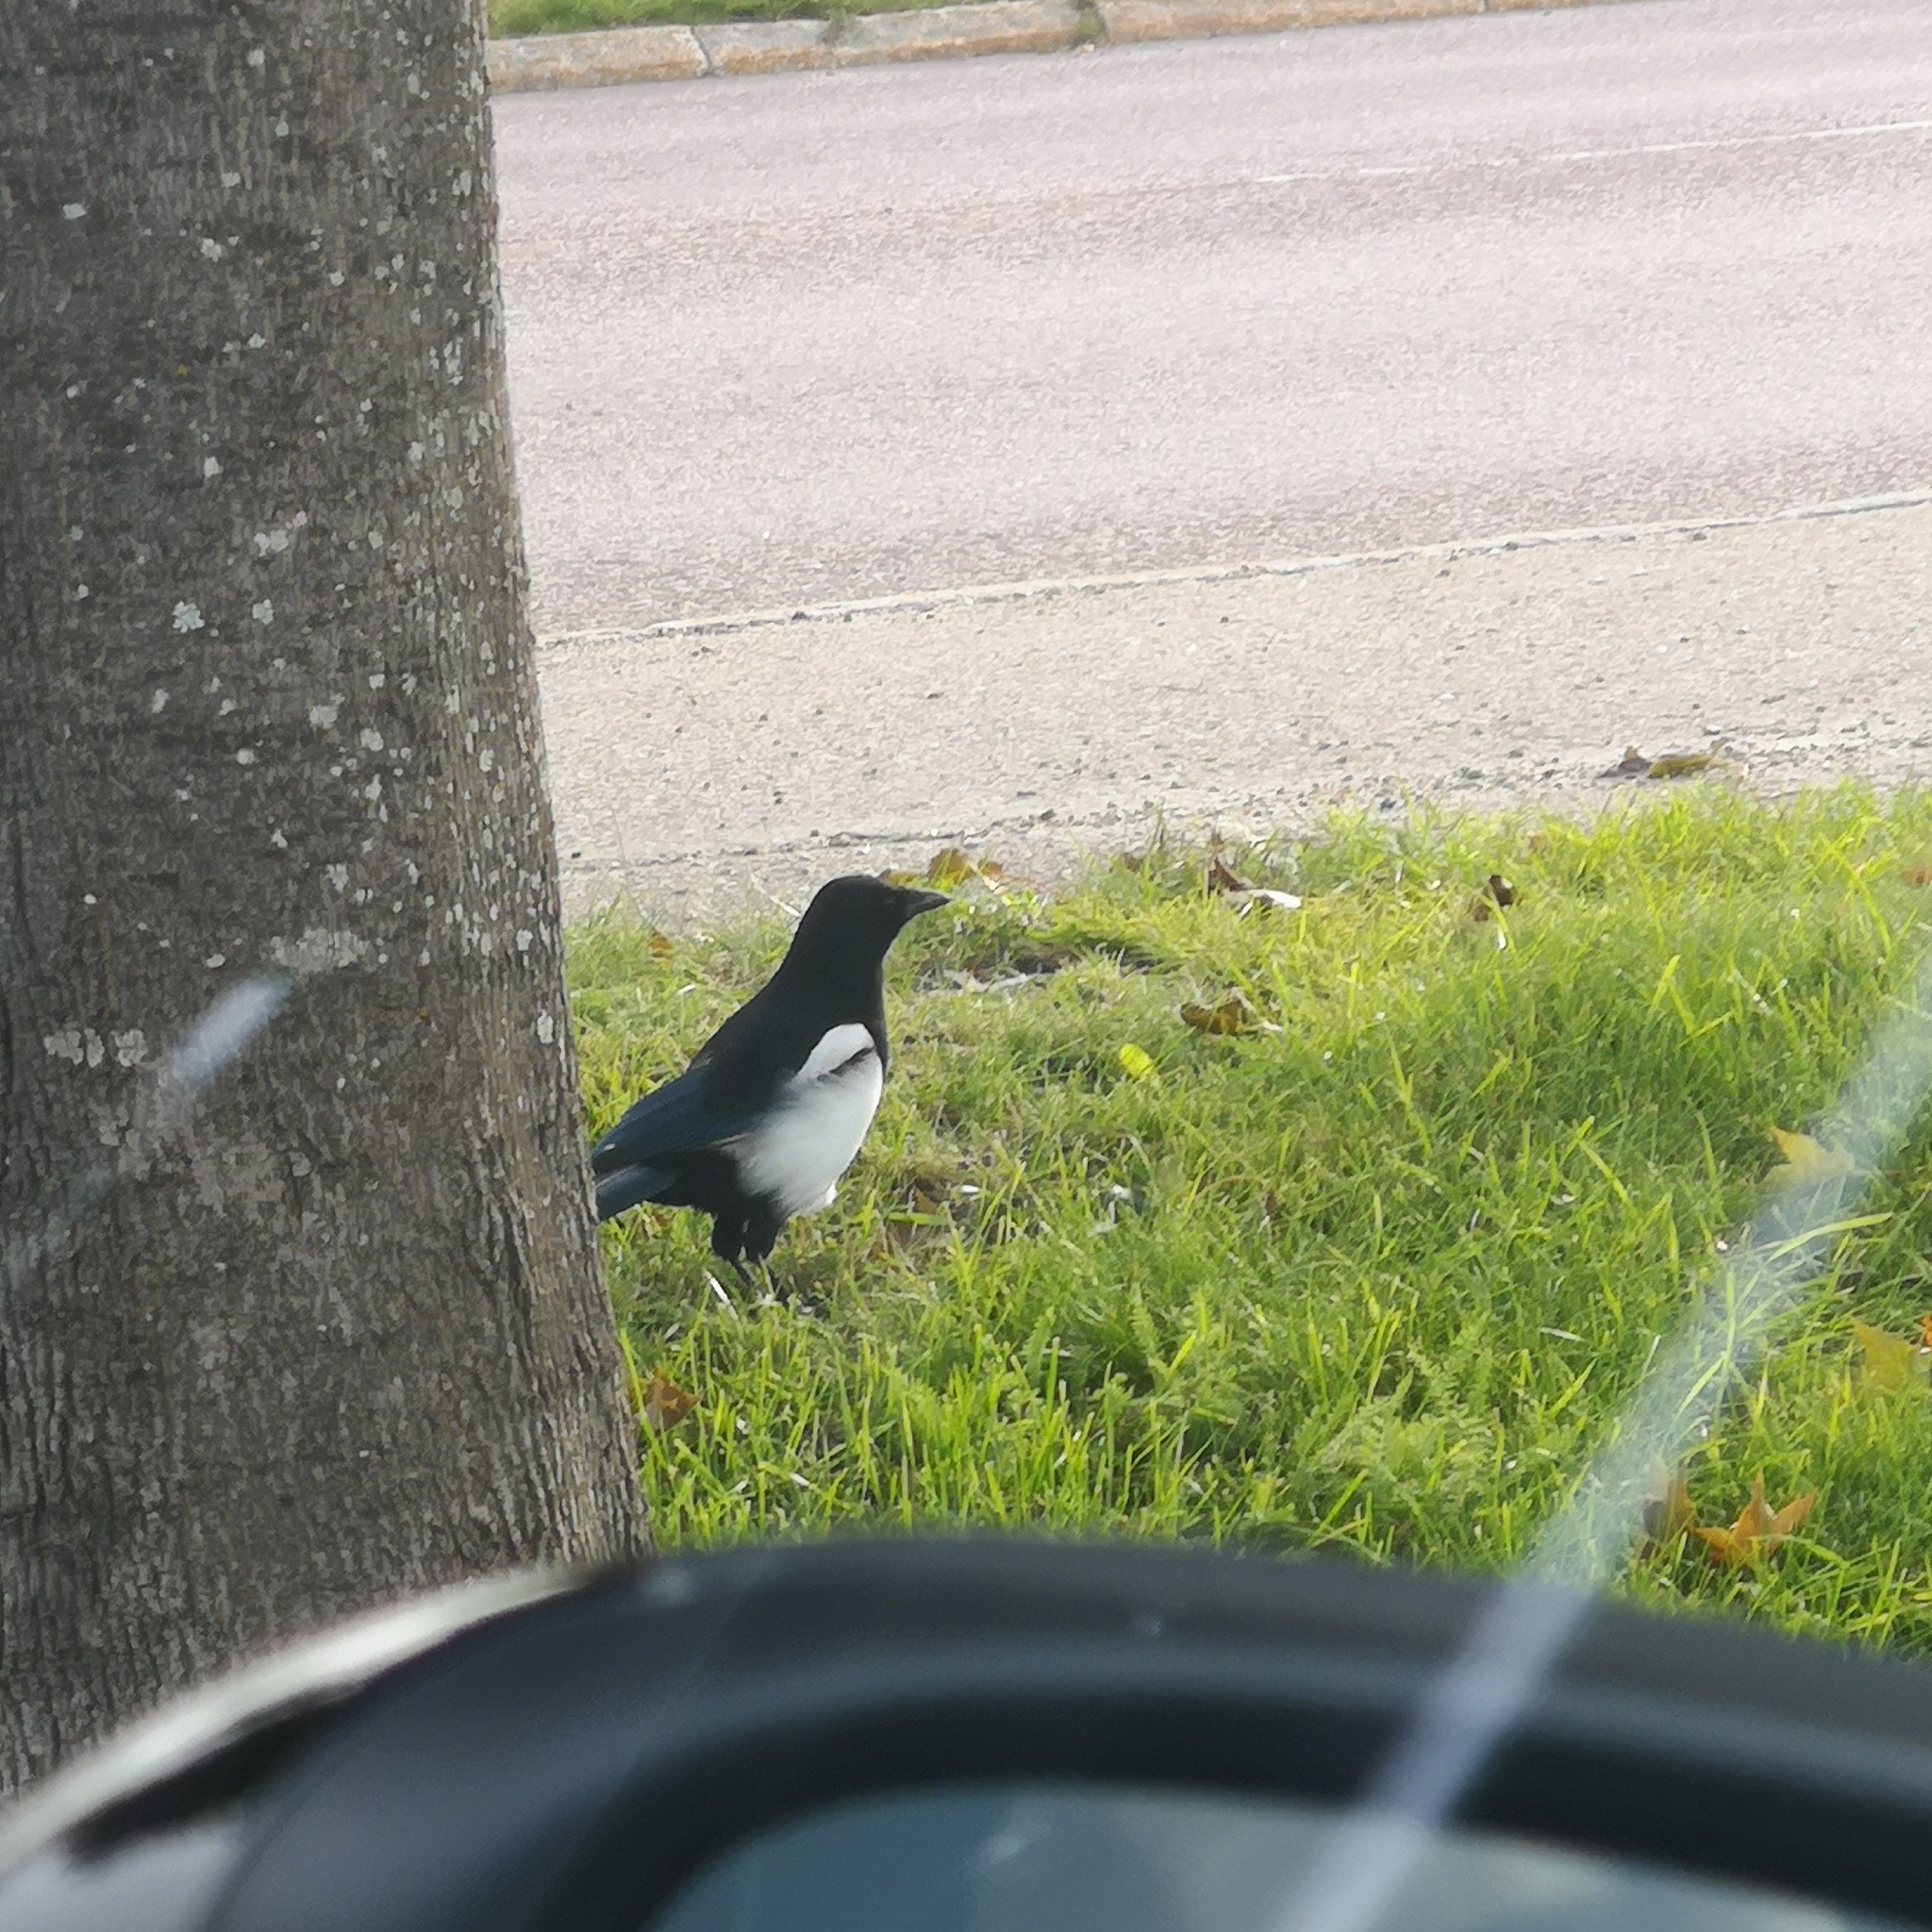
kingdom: Animalia
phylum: Chordata
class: Aves
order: Passeriformes
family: Corvidae
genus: Pica
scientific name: Pica pica
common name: Eurasian magpie
